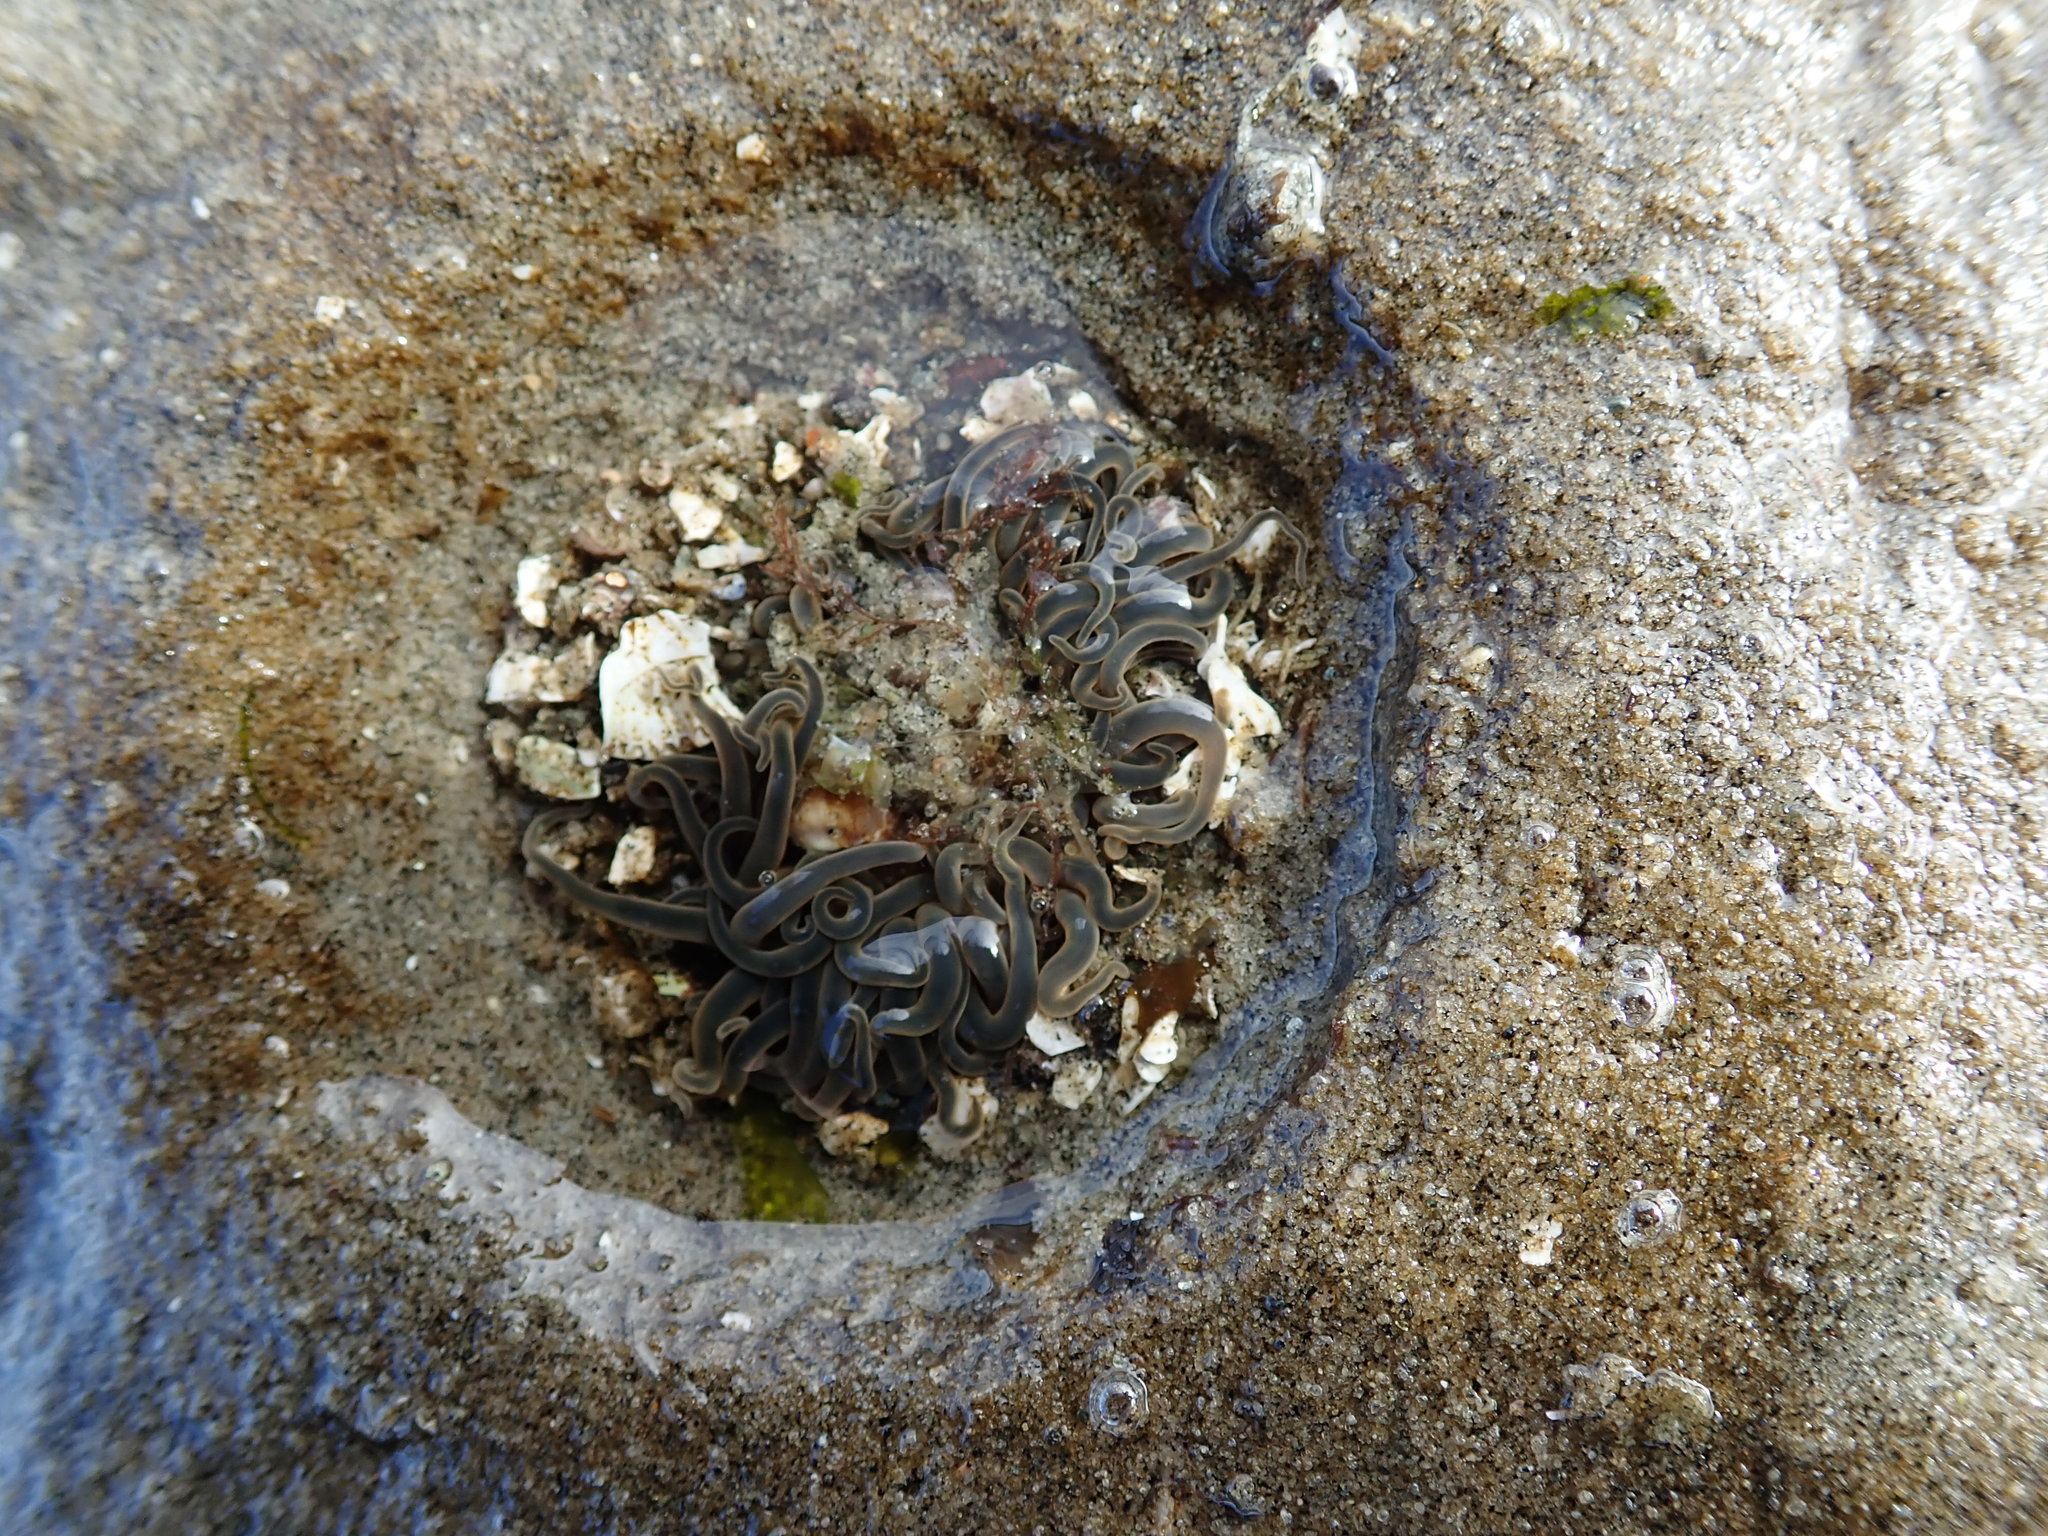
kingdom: Animalia
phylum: Cnidaria
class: Anthozoa
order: Actiniaria
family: Actiniidae
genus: Anthopleura
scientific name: Anthopleura artemisia
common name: Buried sea anemone
